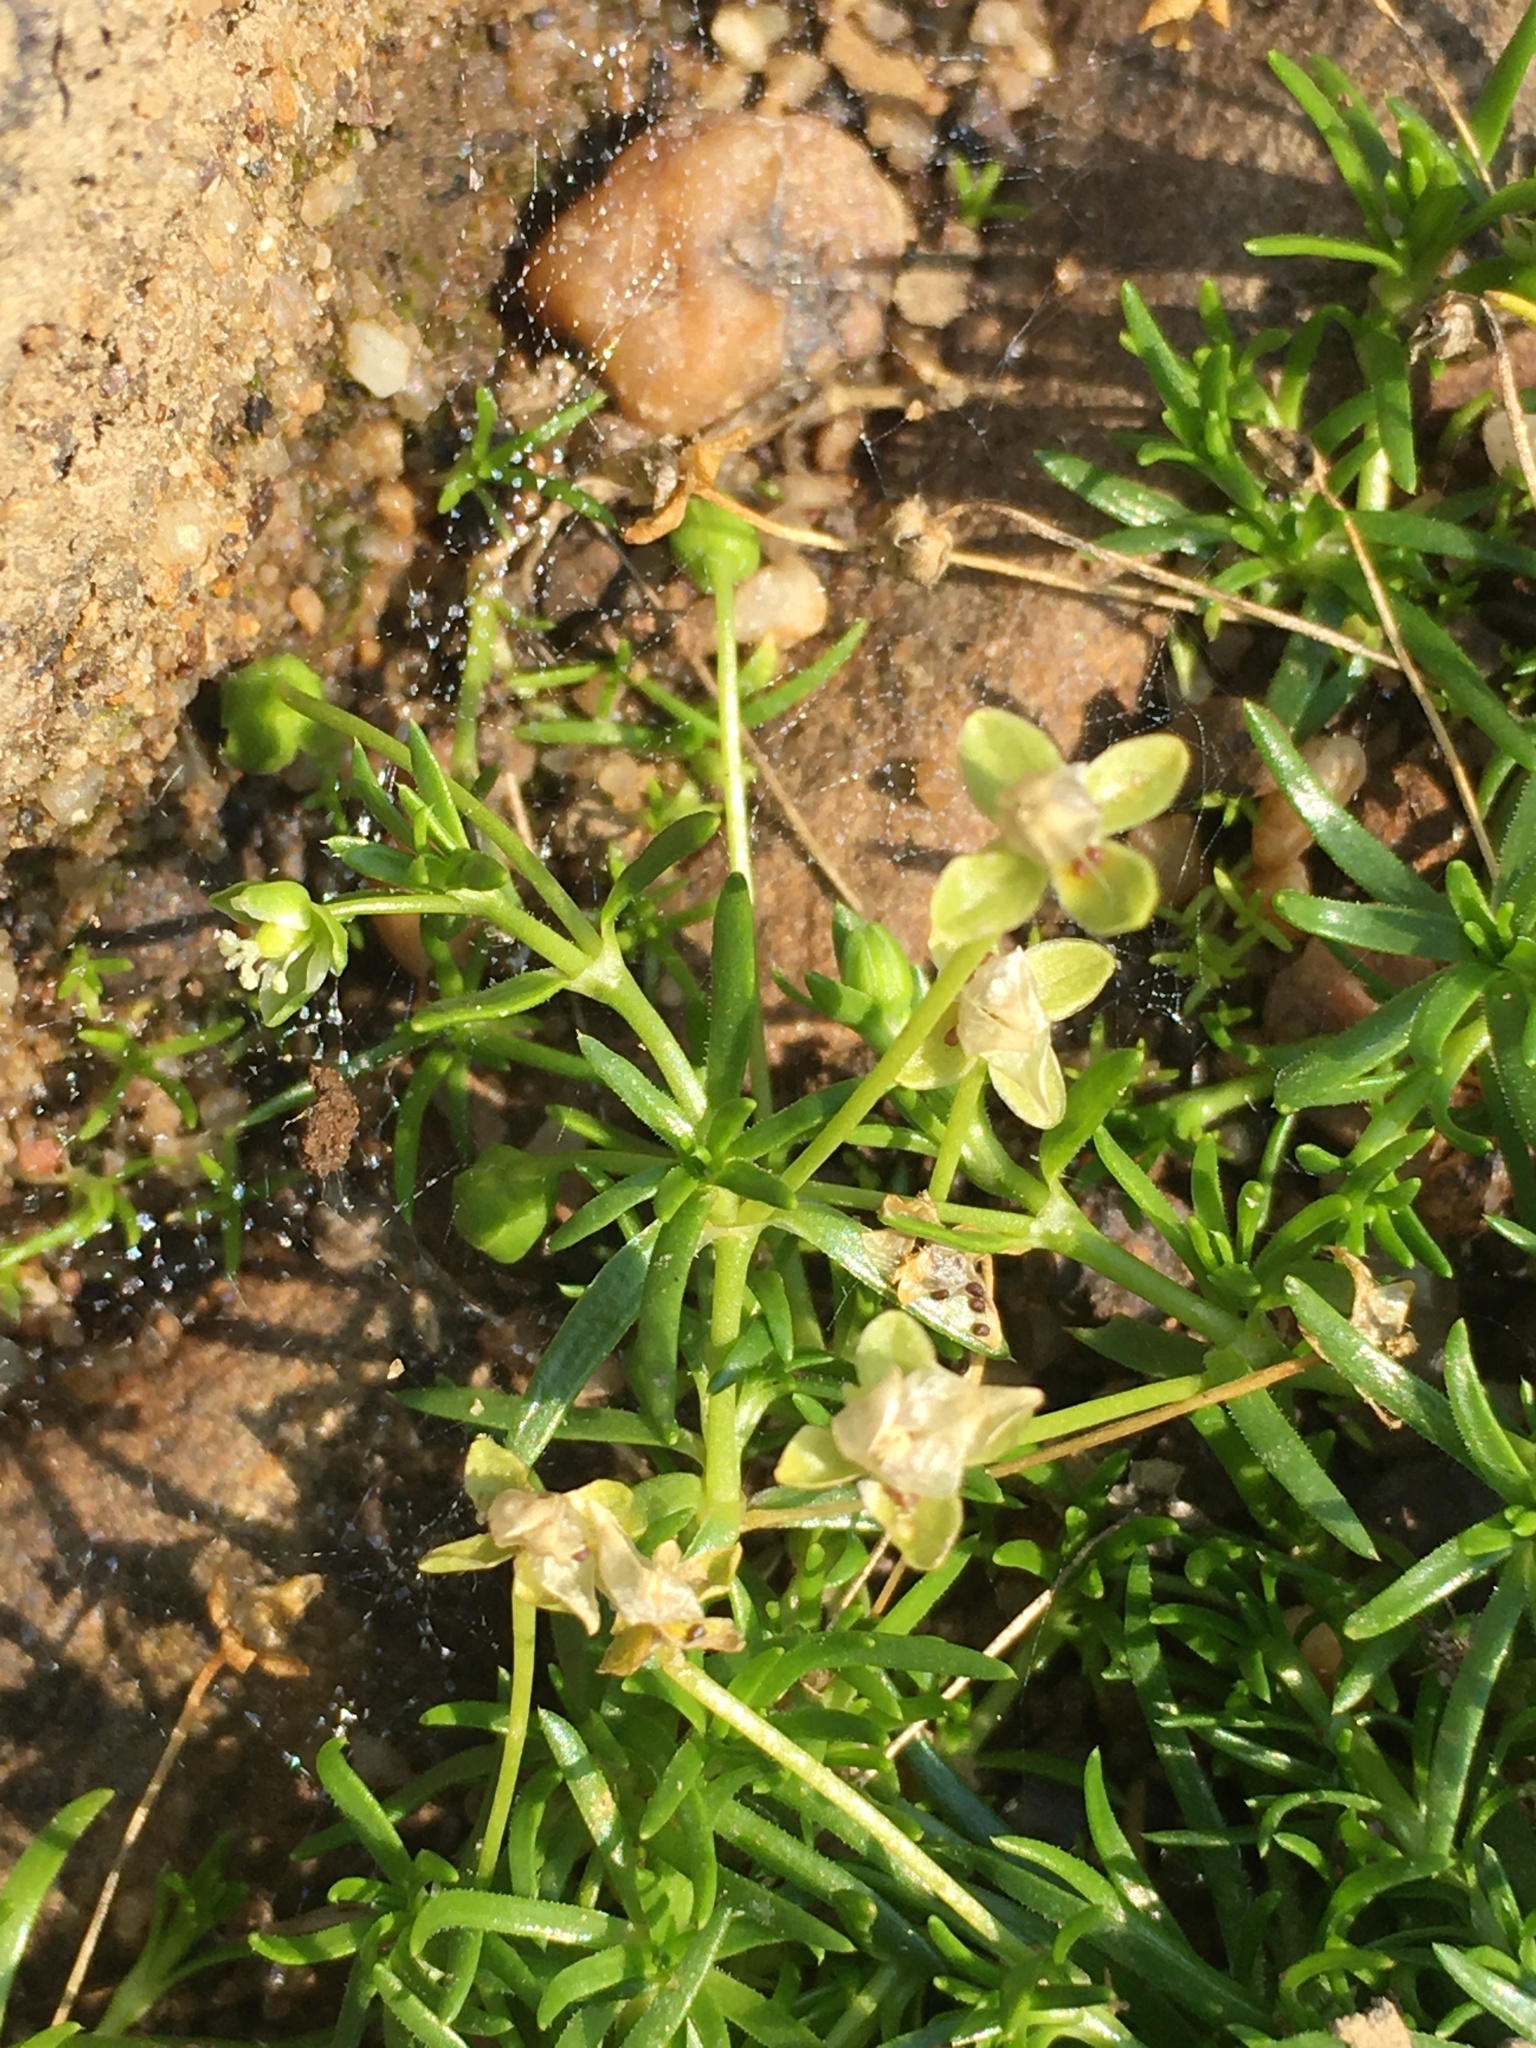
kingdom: Plantae
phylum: Tracheophyta
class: Magnoliopsida
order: Caryophyllales
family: Caryophyllaceae
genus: Sagina
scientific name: Sagina procumbens
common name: Procumbent pearlwort
